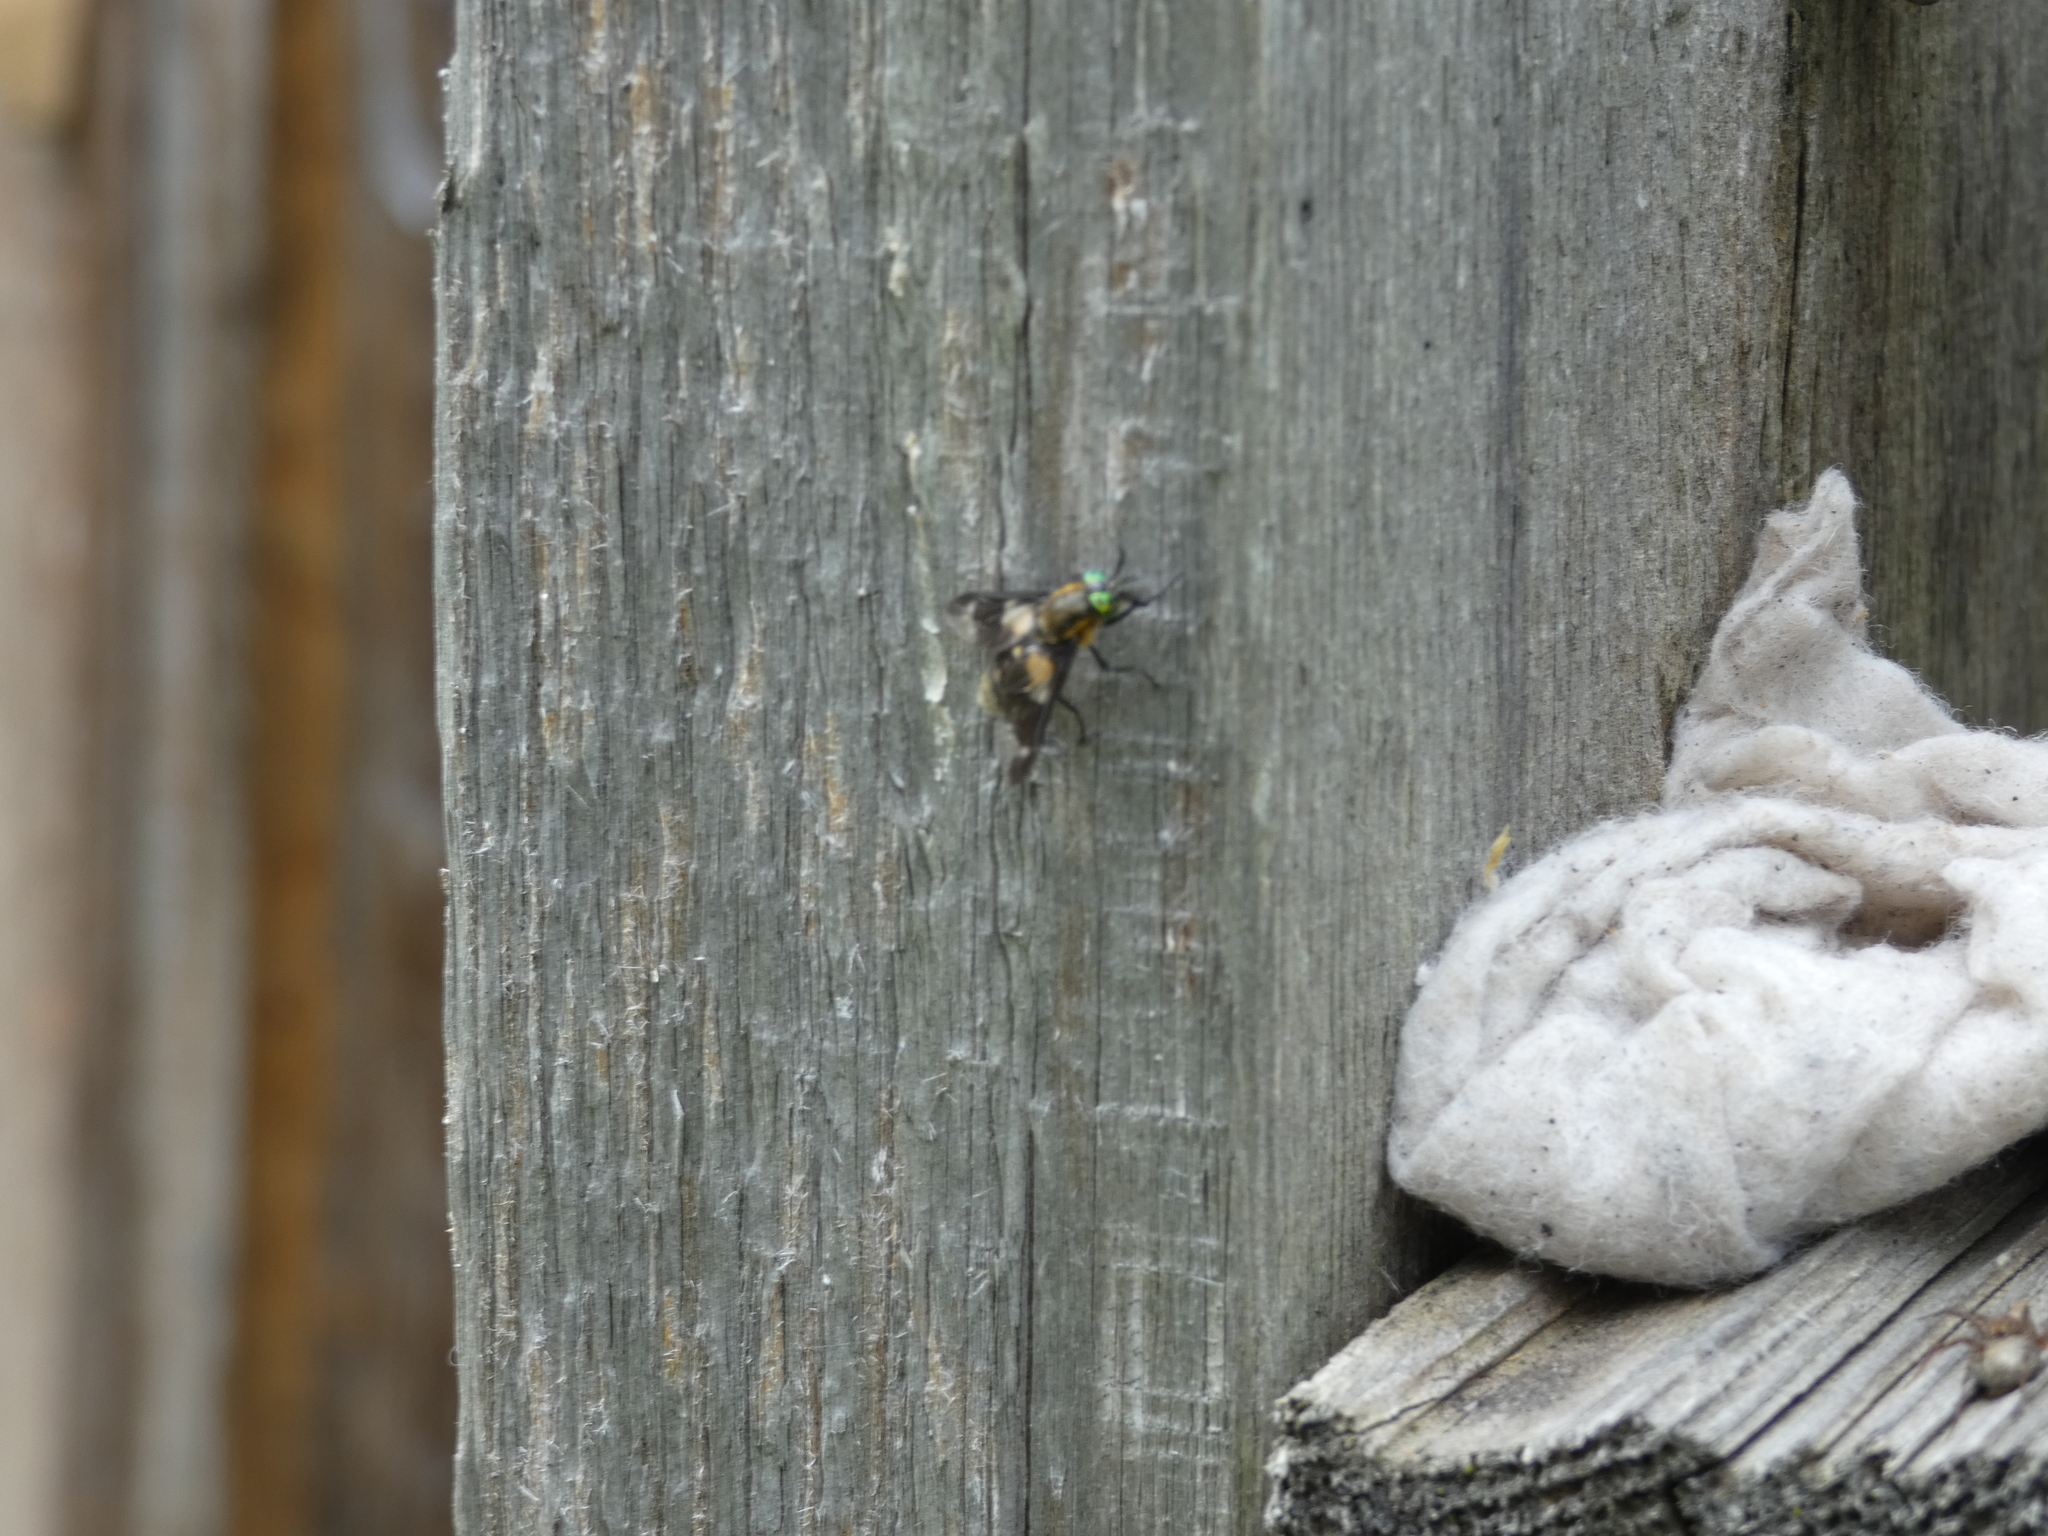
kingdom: Animalia
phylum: Arthropoda
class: Insecta
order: Diptera
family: Tabanidae
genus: Chrysops
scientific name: Chrysops caecutiens
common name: Splayed deerfly
